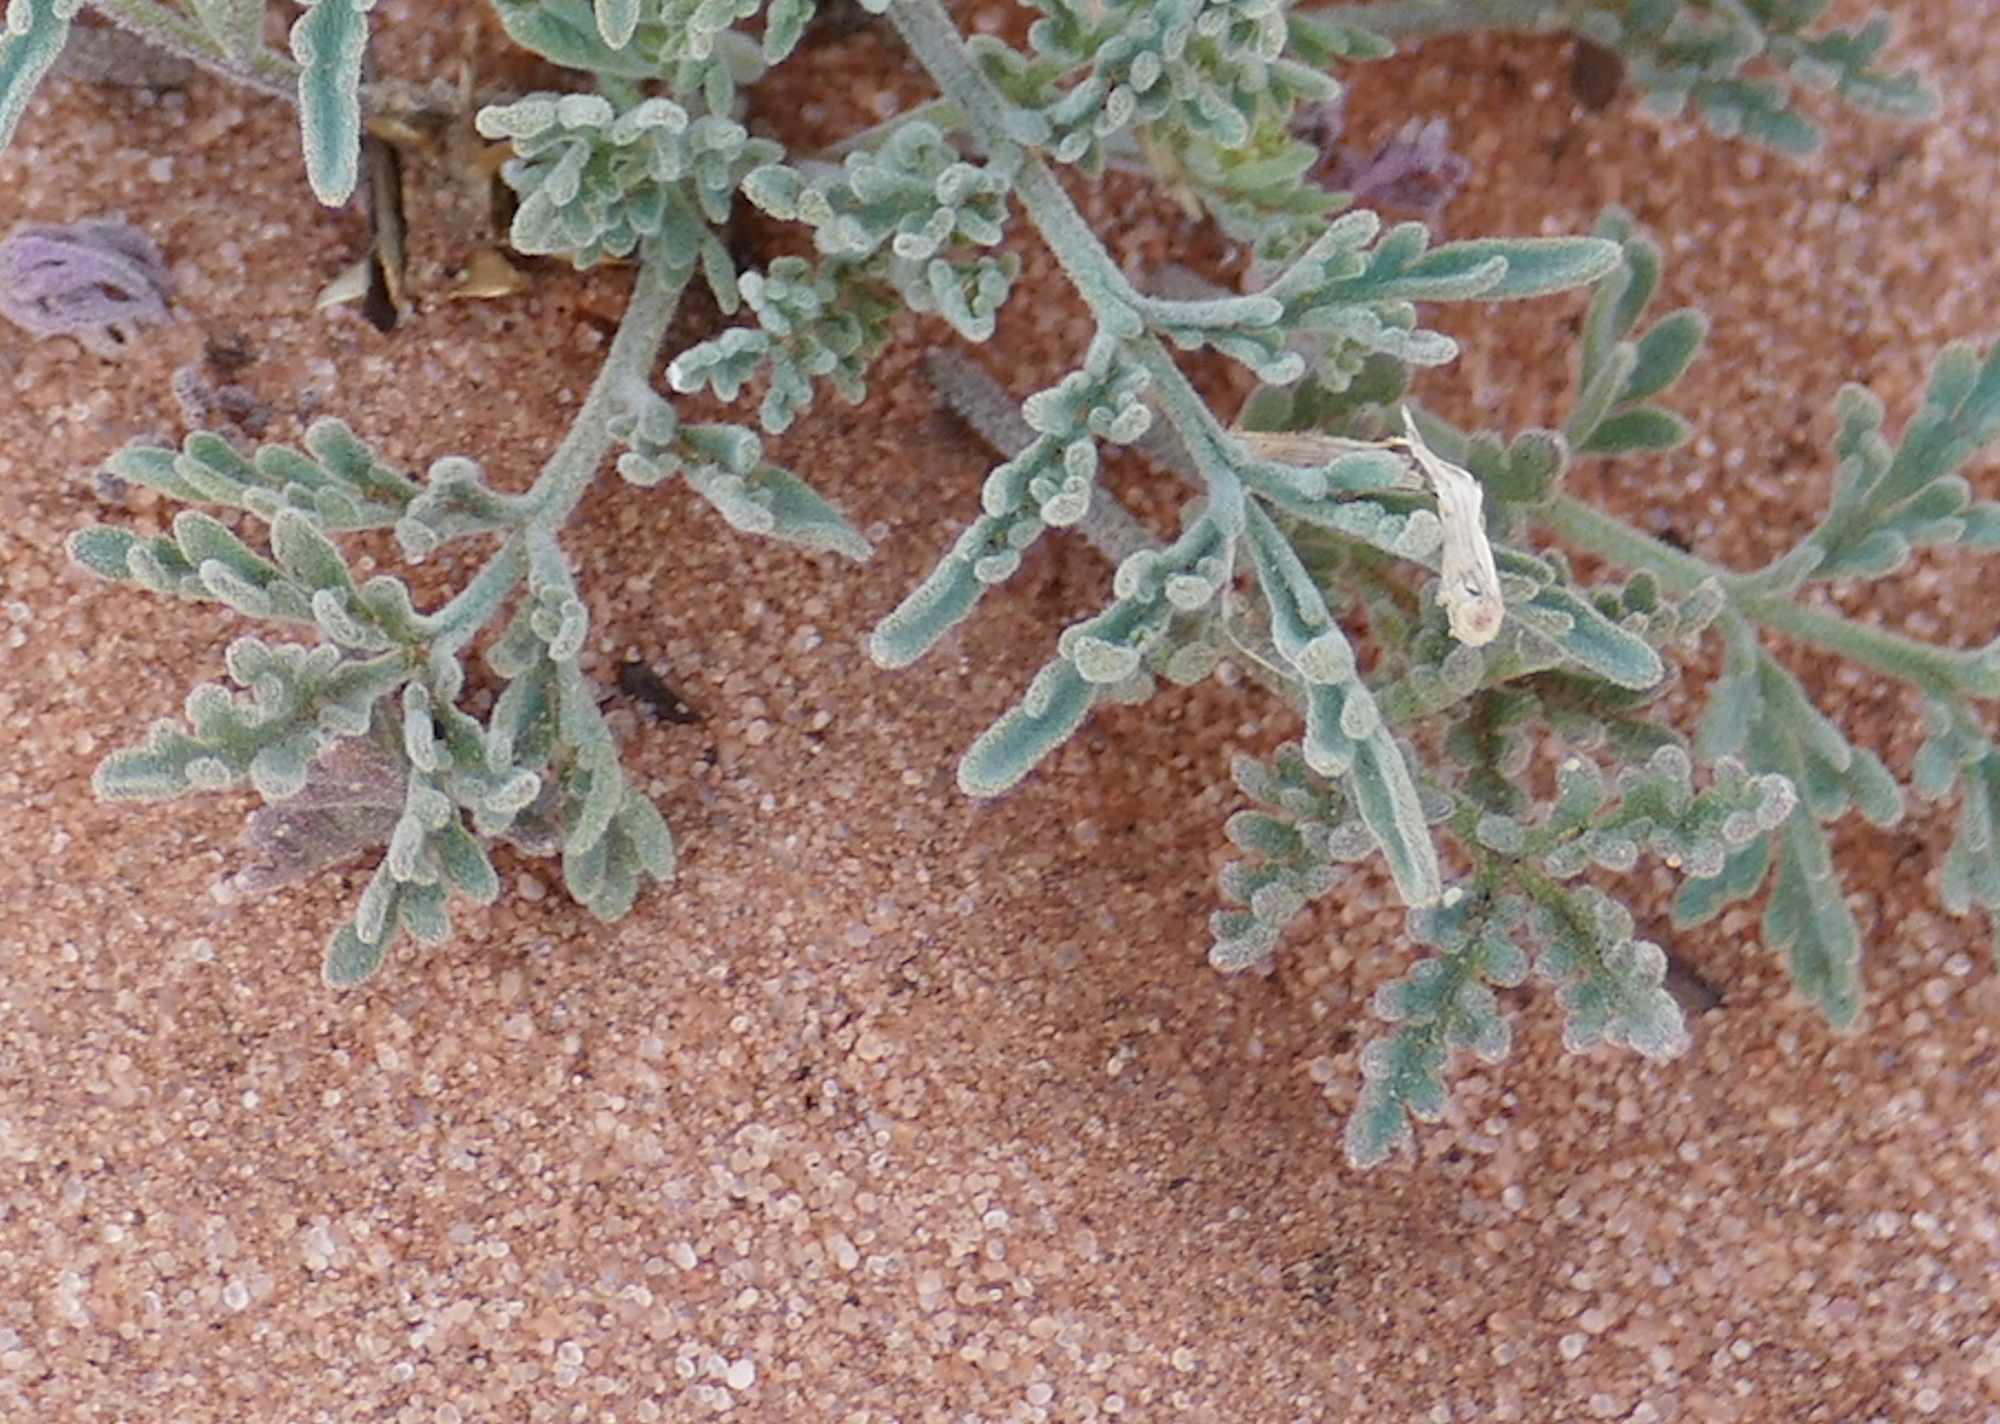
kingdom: Plantae
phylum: Tracheophyta
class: Magnoliopsida
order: Brassicales
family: Brassicaceae
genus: Descurainia
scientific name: Descurainia pinnata
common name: Western tansy mustard
